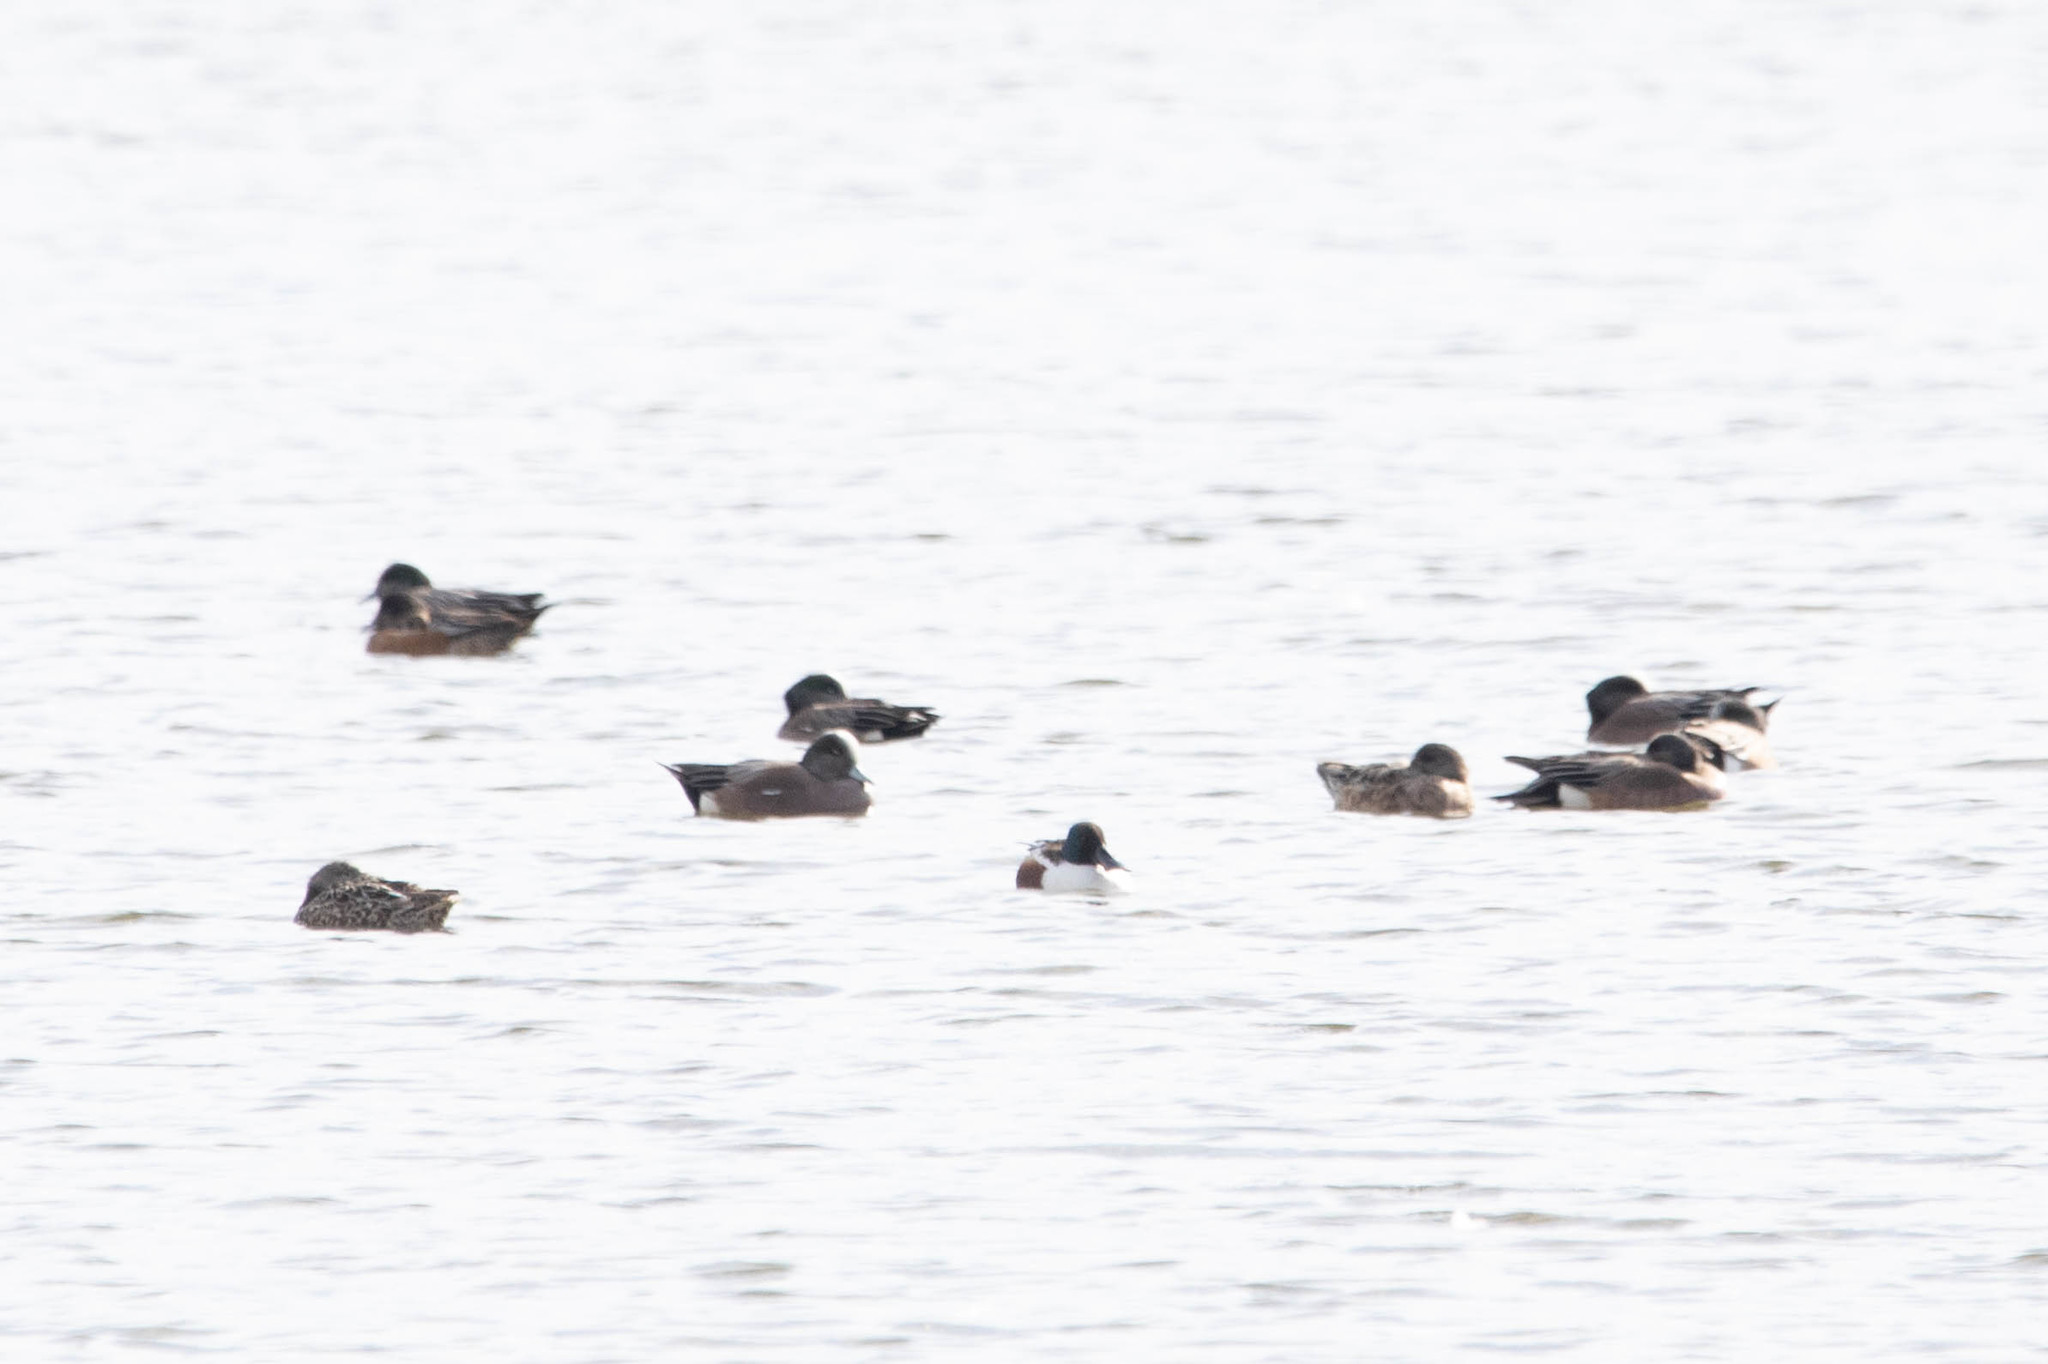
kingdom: Animalia
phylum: Chordata
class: Aves
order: Anseriformes
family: Anatidae
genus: Mareca
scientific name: Mareca americana
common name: American wigeon
